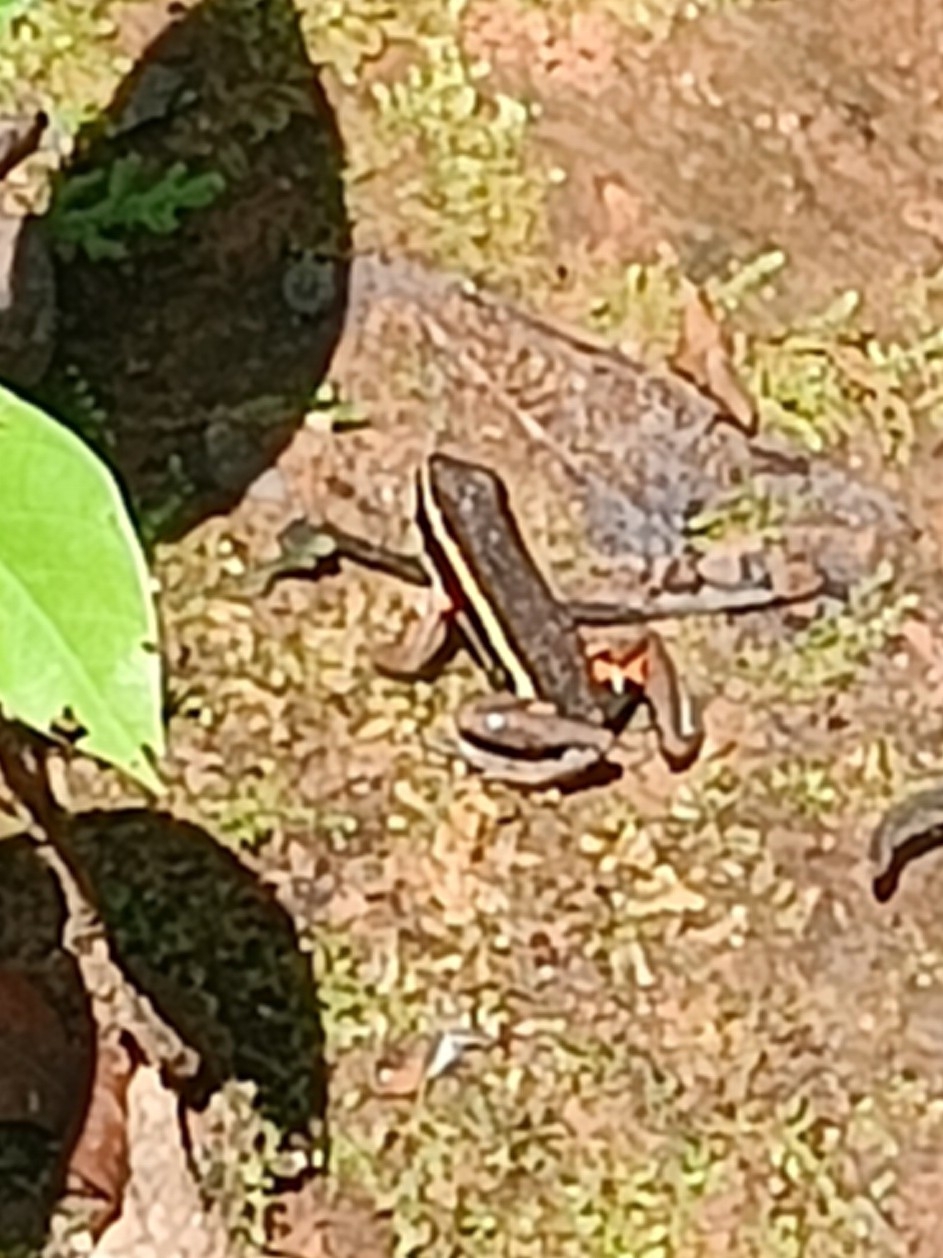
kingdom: Animalia
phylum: Chordata
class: Amphibia
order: Anura
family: Dendrobatidae
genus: Ameerega
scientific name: Ameerega picta
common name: Spot-legged poison frog
